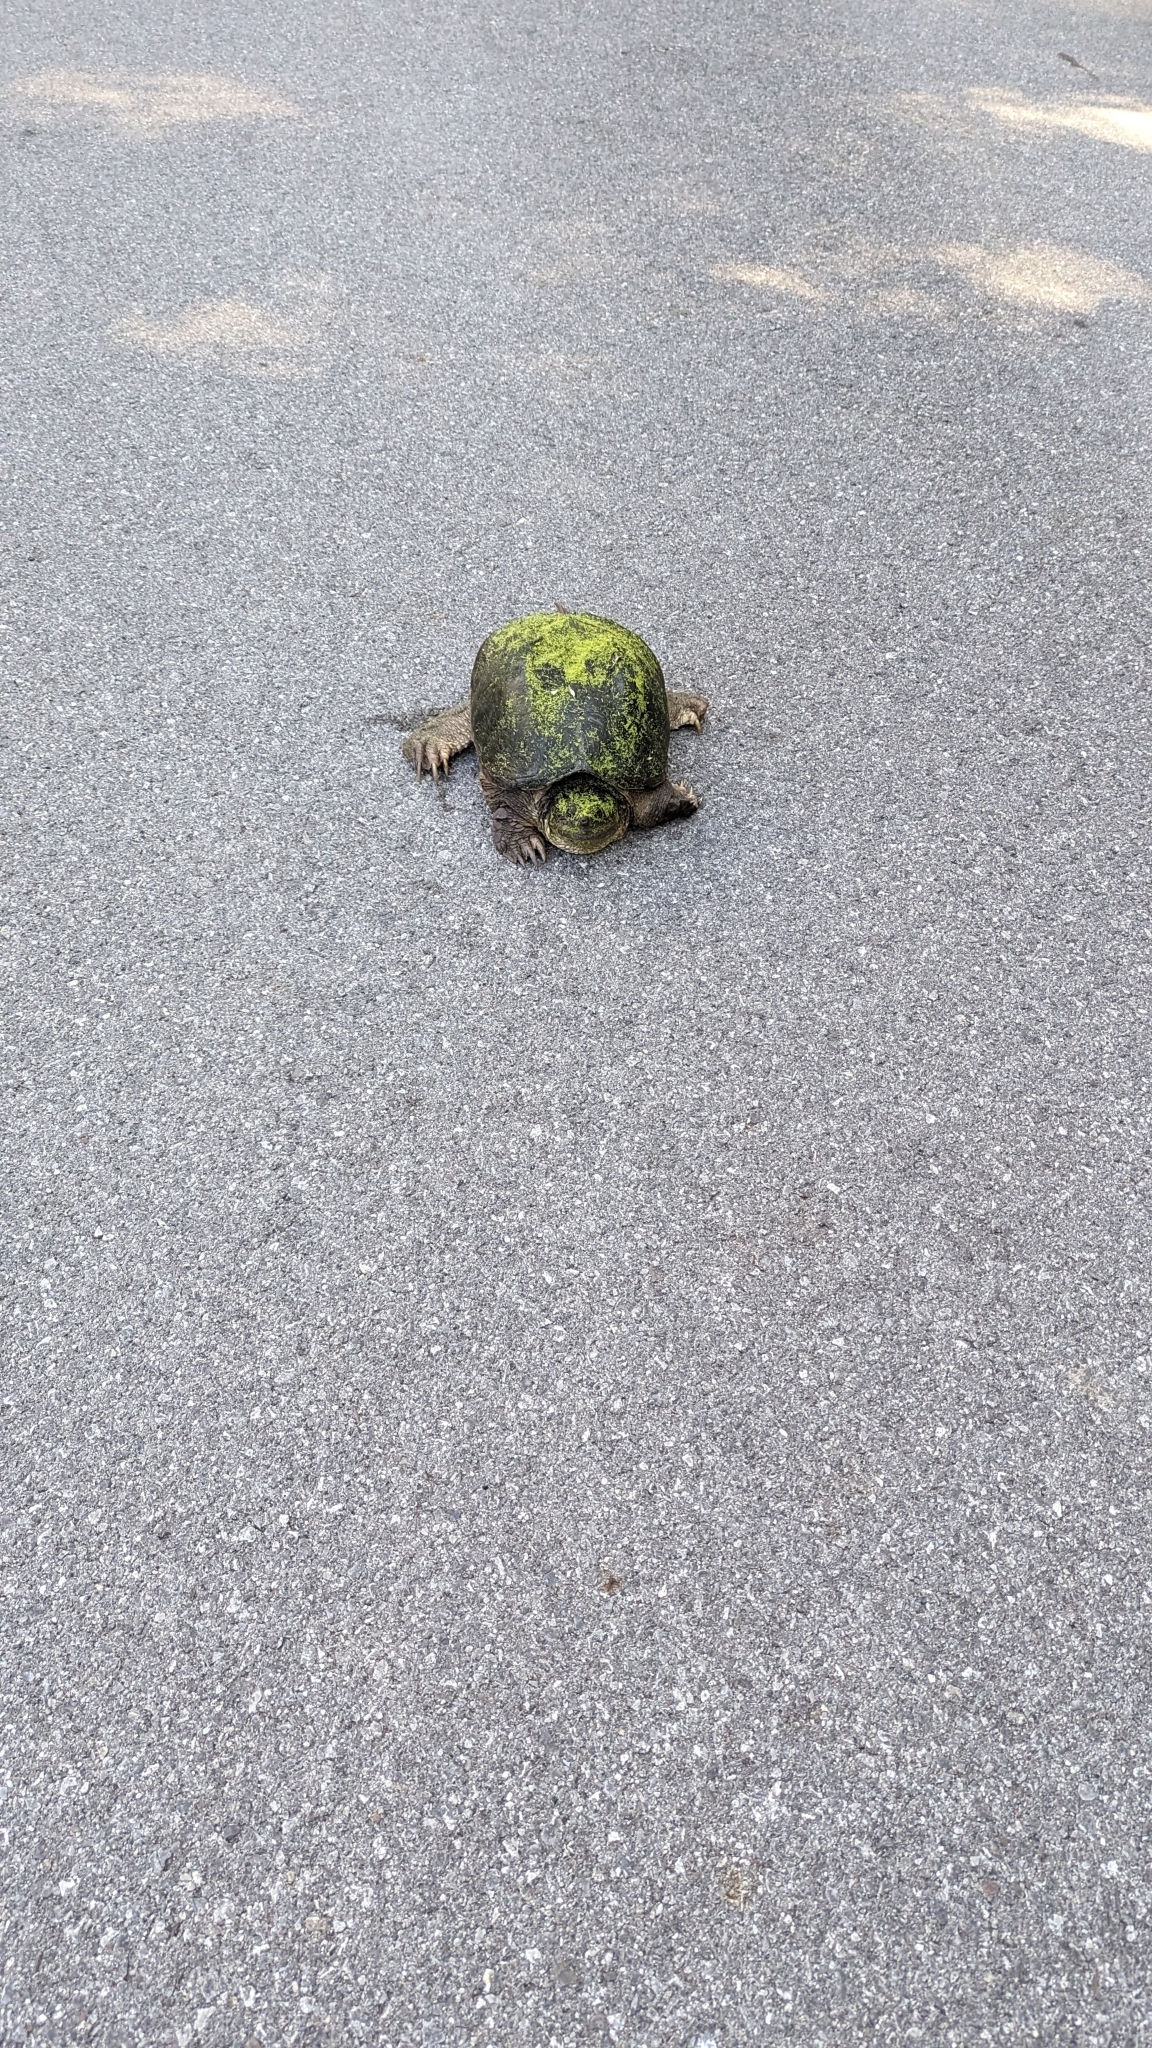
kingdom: Animalia
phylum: Chordata
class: Testudines
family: Chelydridae
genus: Chelydra
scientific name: Chelydra serpentina
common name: Common snapping turtle
